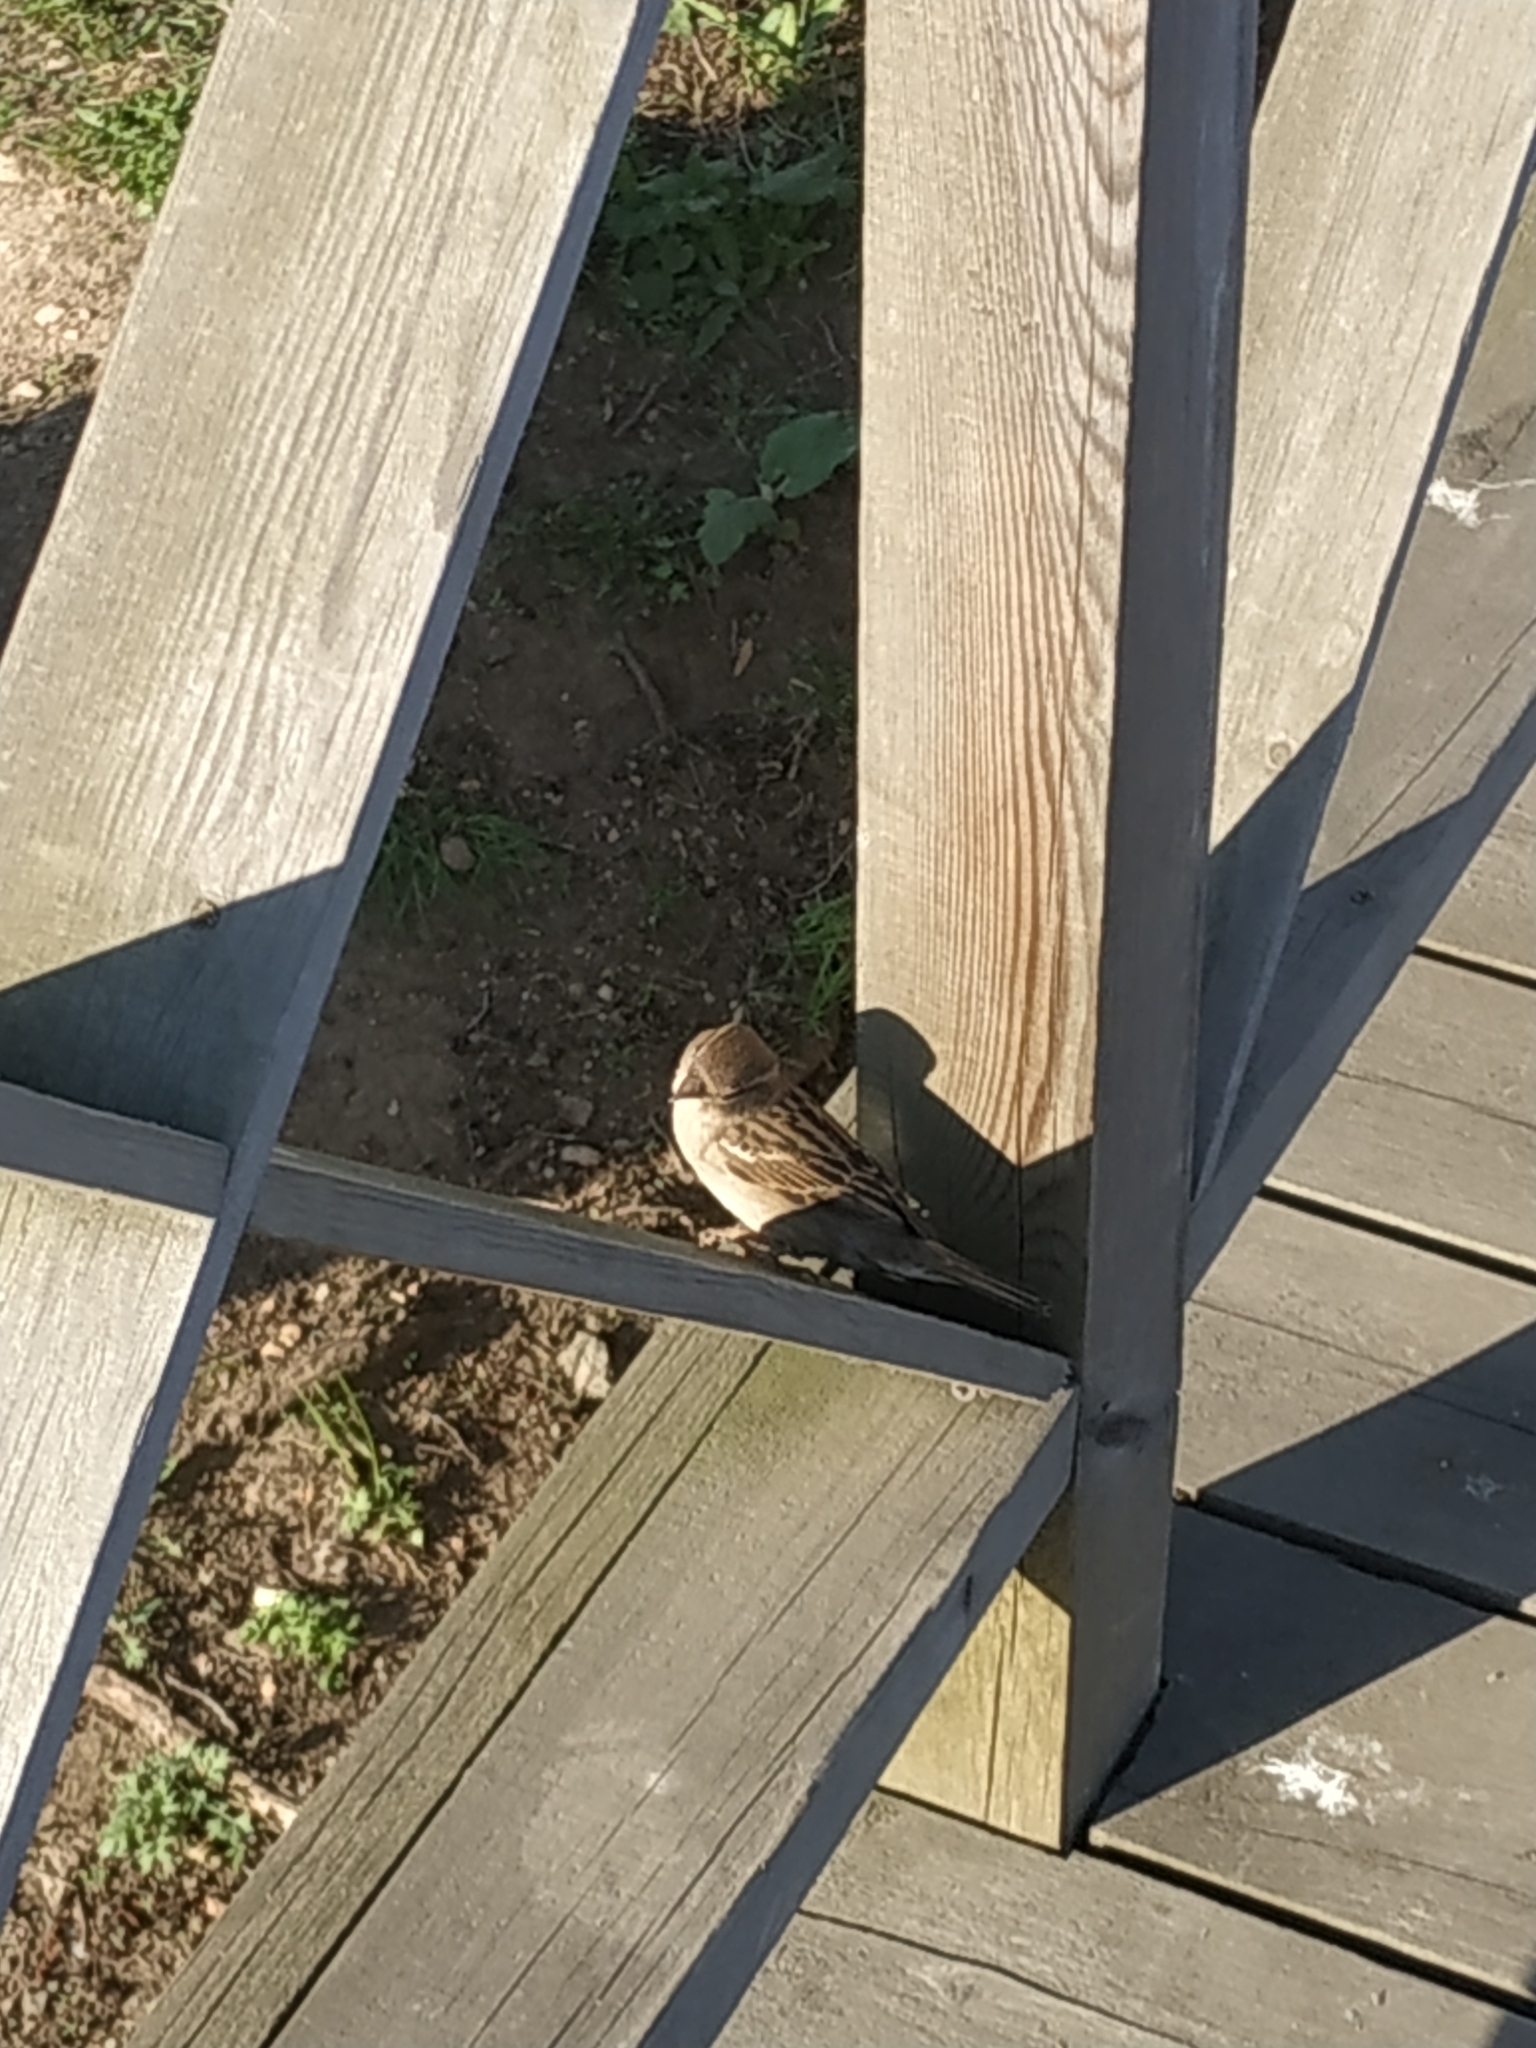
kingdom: Animalia
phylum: Chordata
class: Aves
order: Passeriformes
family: Passeridae
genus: Passer
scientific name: Passer domesticus
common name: House sparrow
